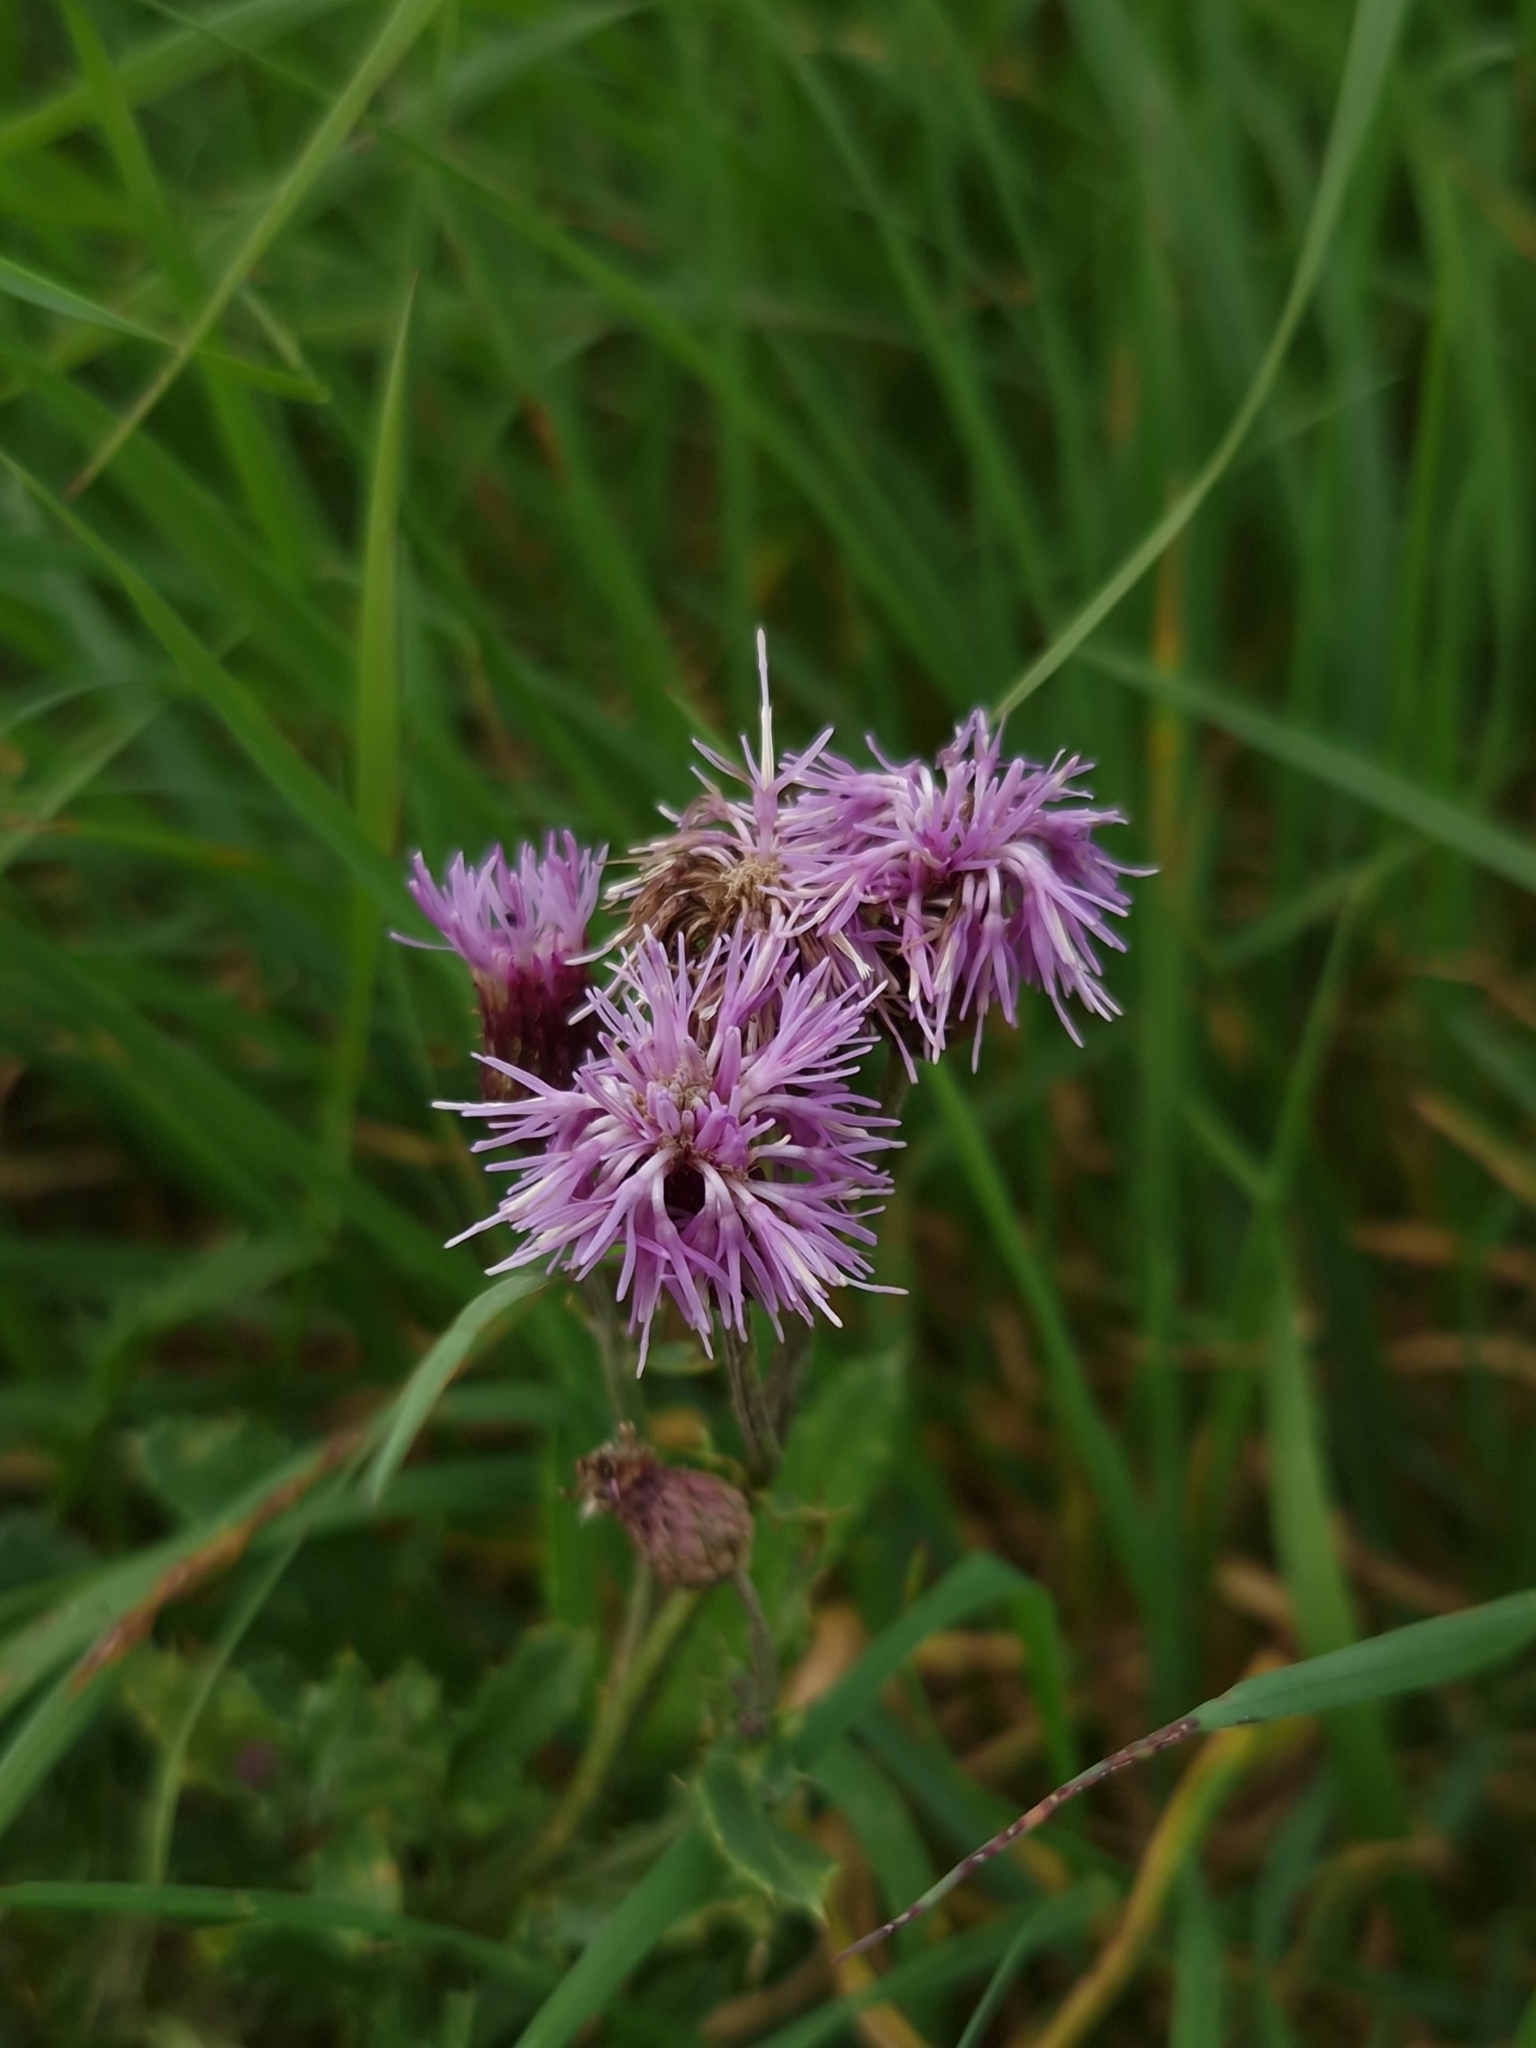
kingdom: Plantae
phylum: Tracheophyta
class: Magnoliopsida
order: Asterales
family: Asteraceae
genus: Cirsium
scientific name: Cirsium arvense
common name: Creeping thistle
